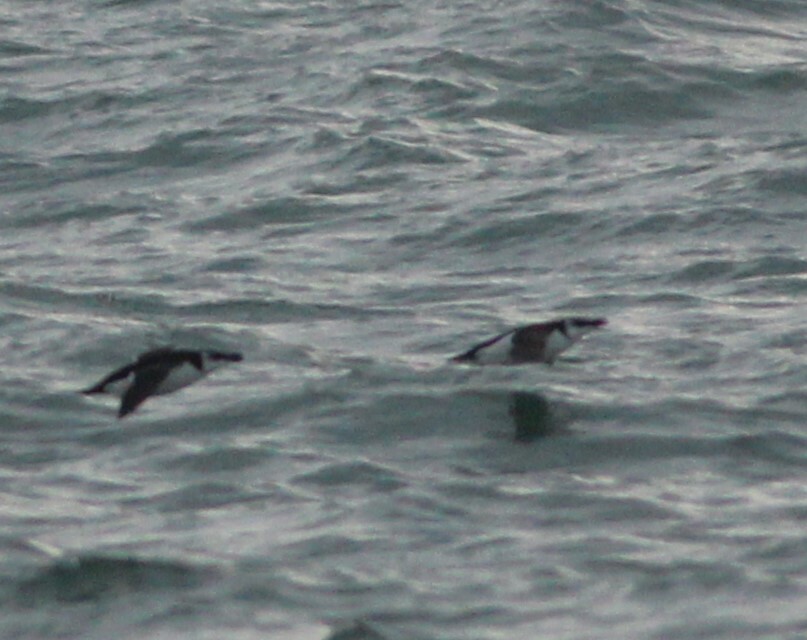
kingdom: Animalia
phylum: Chordata
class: Aves
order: Charadriiformes
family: Alcidae
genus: Alca
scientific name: Alca torda
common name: Razorbill
